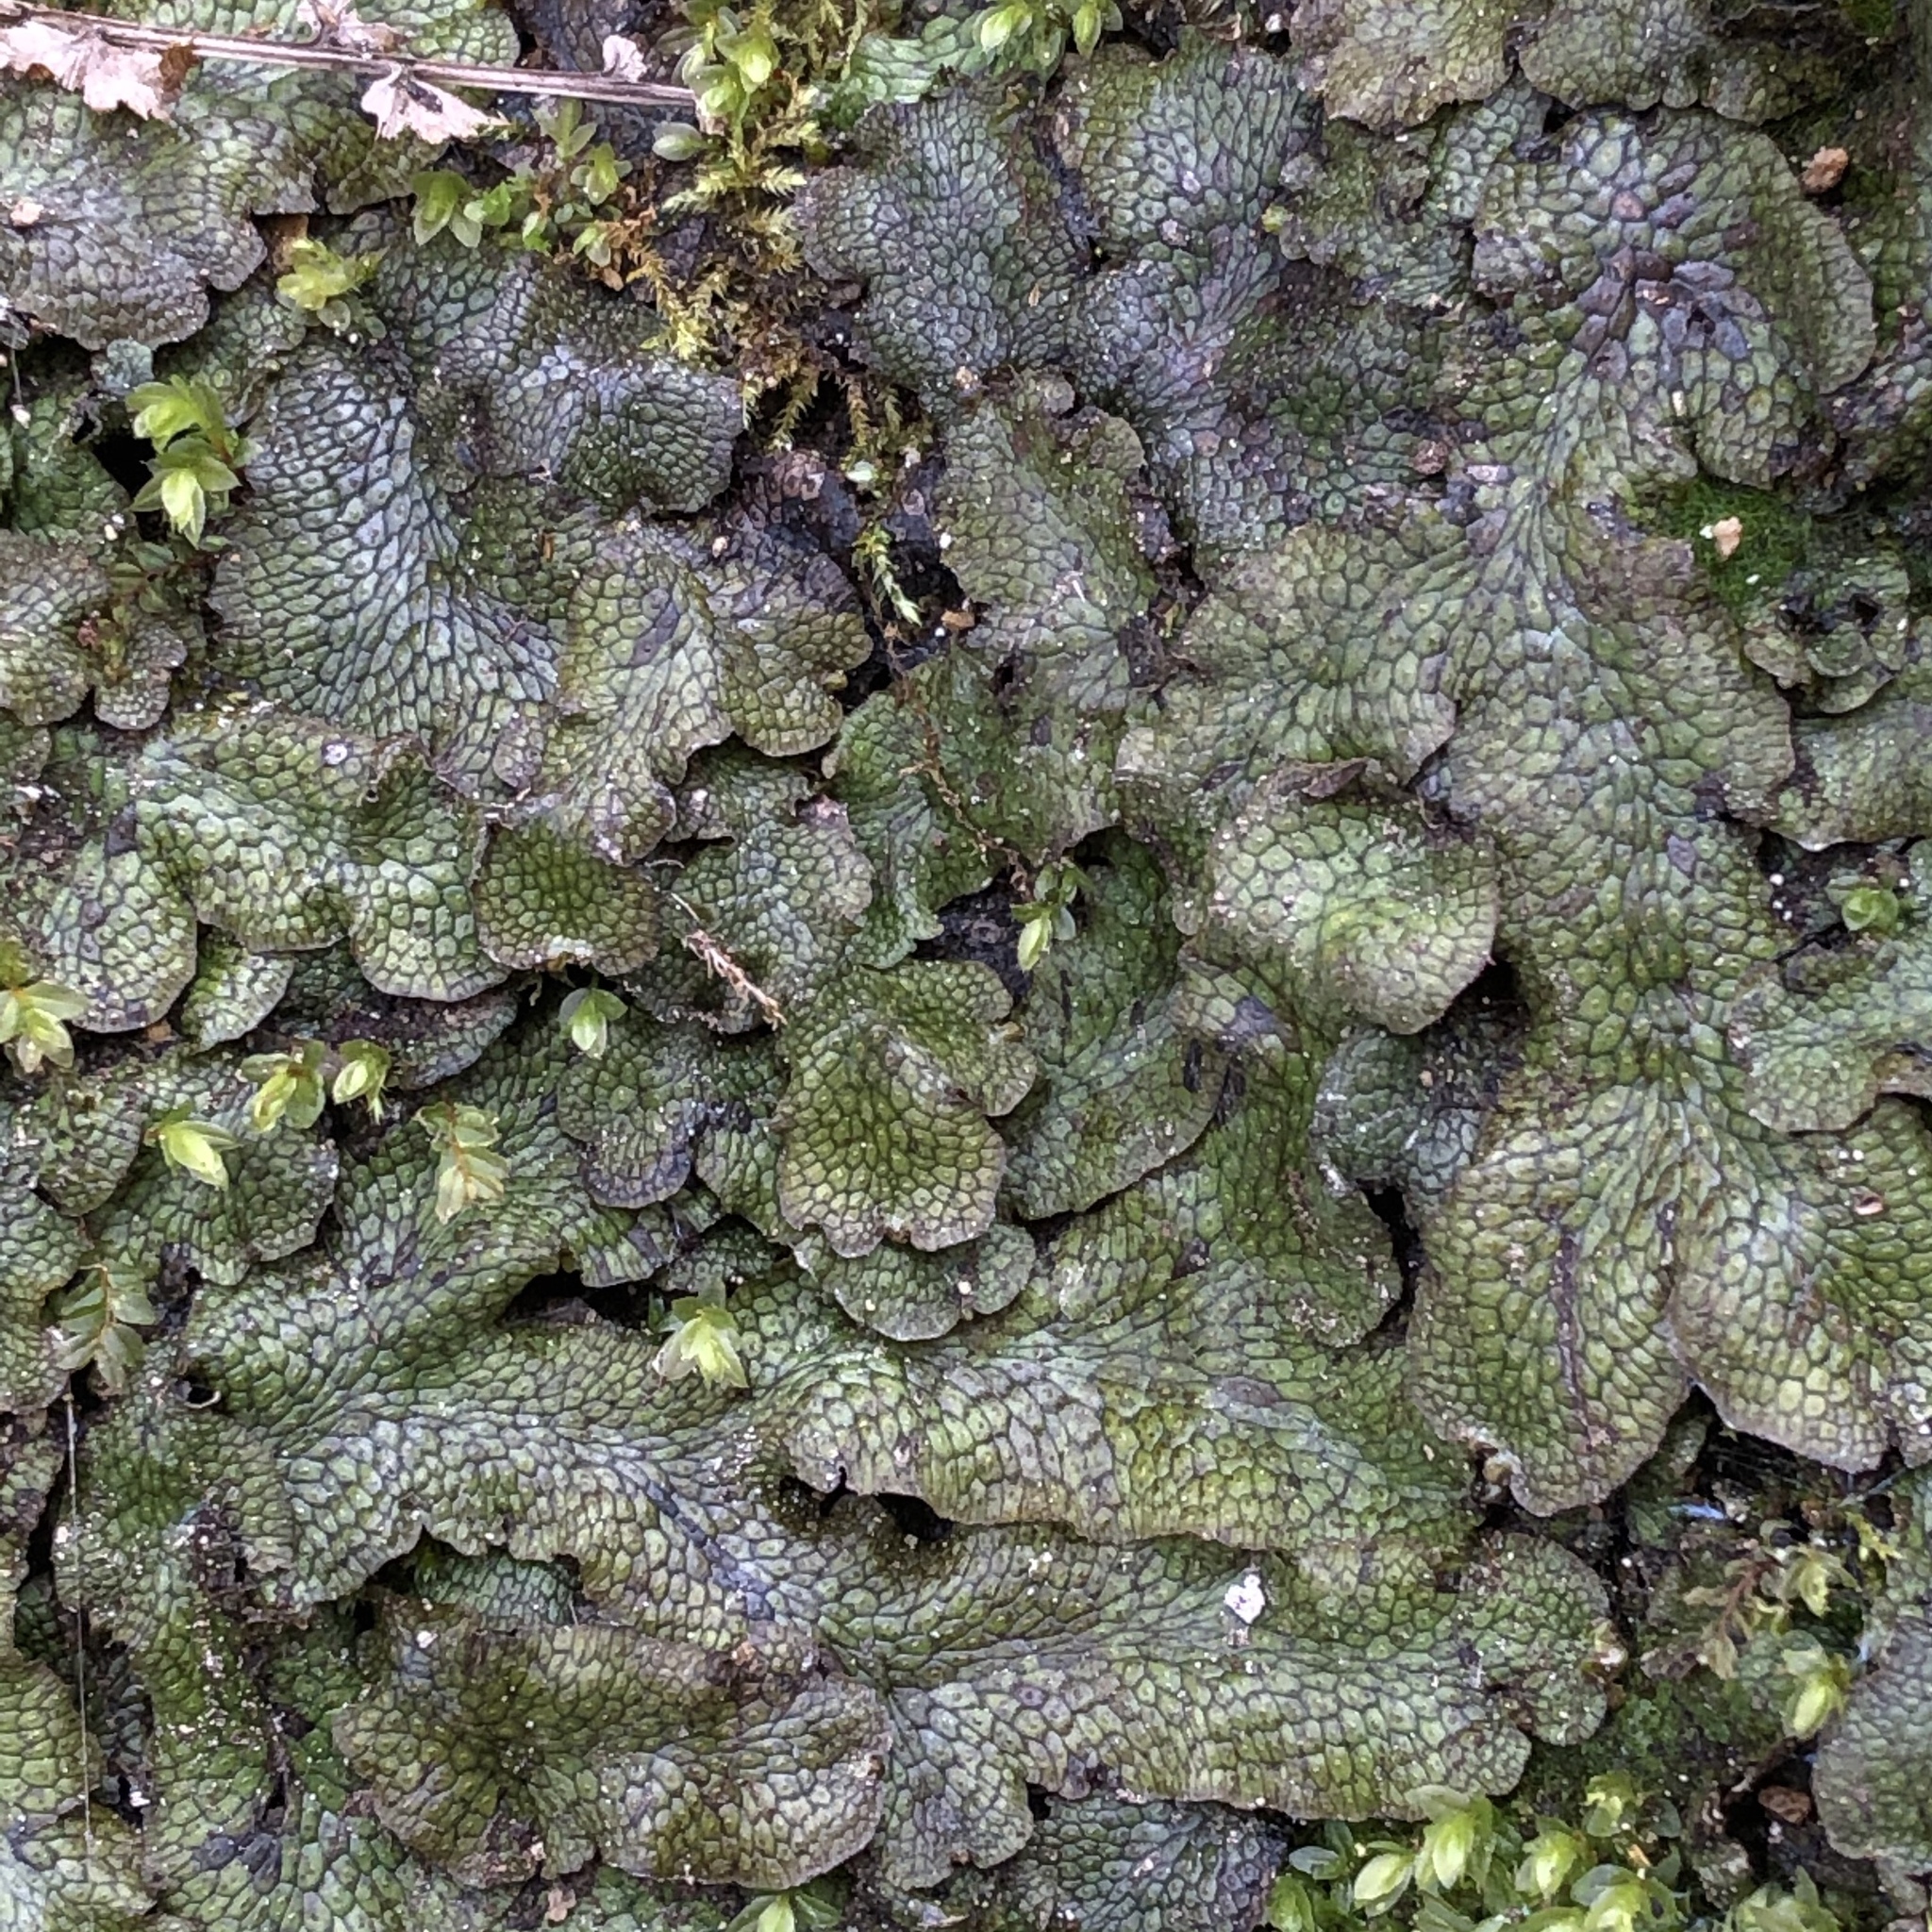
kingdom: Plantae
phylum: Marchantiophyta
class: Marchantiopsida
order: Marchantiales
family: Conocephalaceae
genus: Conocephalum
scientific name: Conocephalum salebrosum
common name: Cat-tongue liverwort
